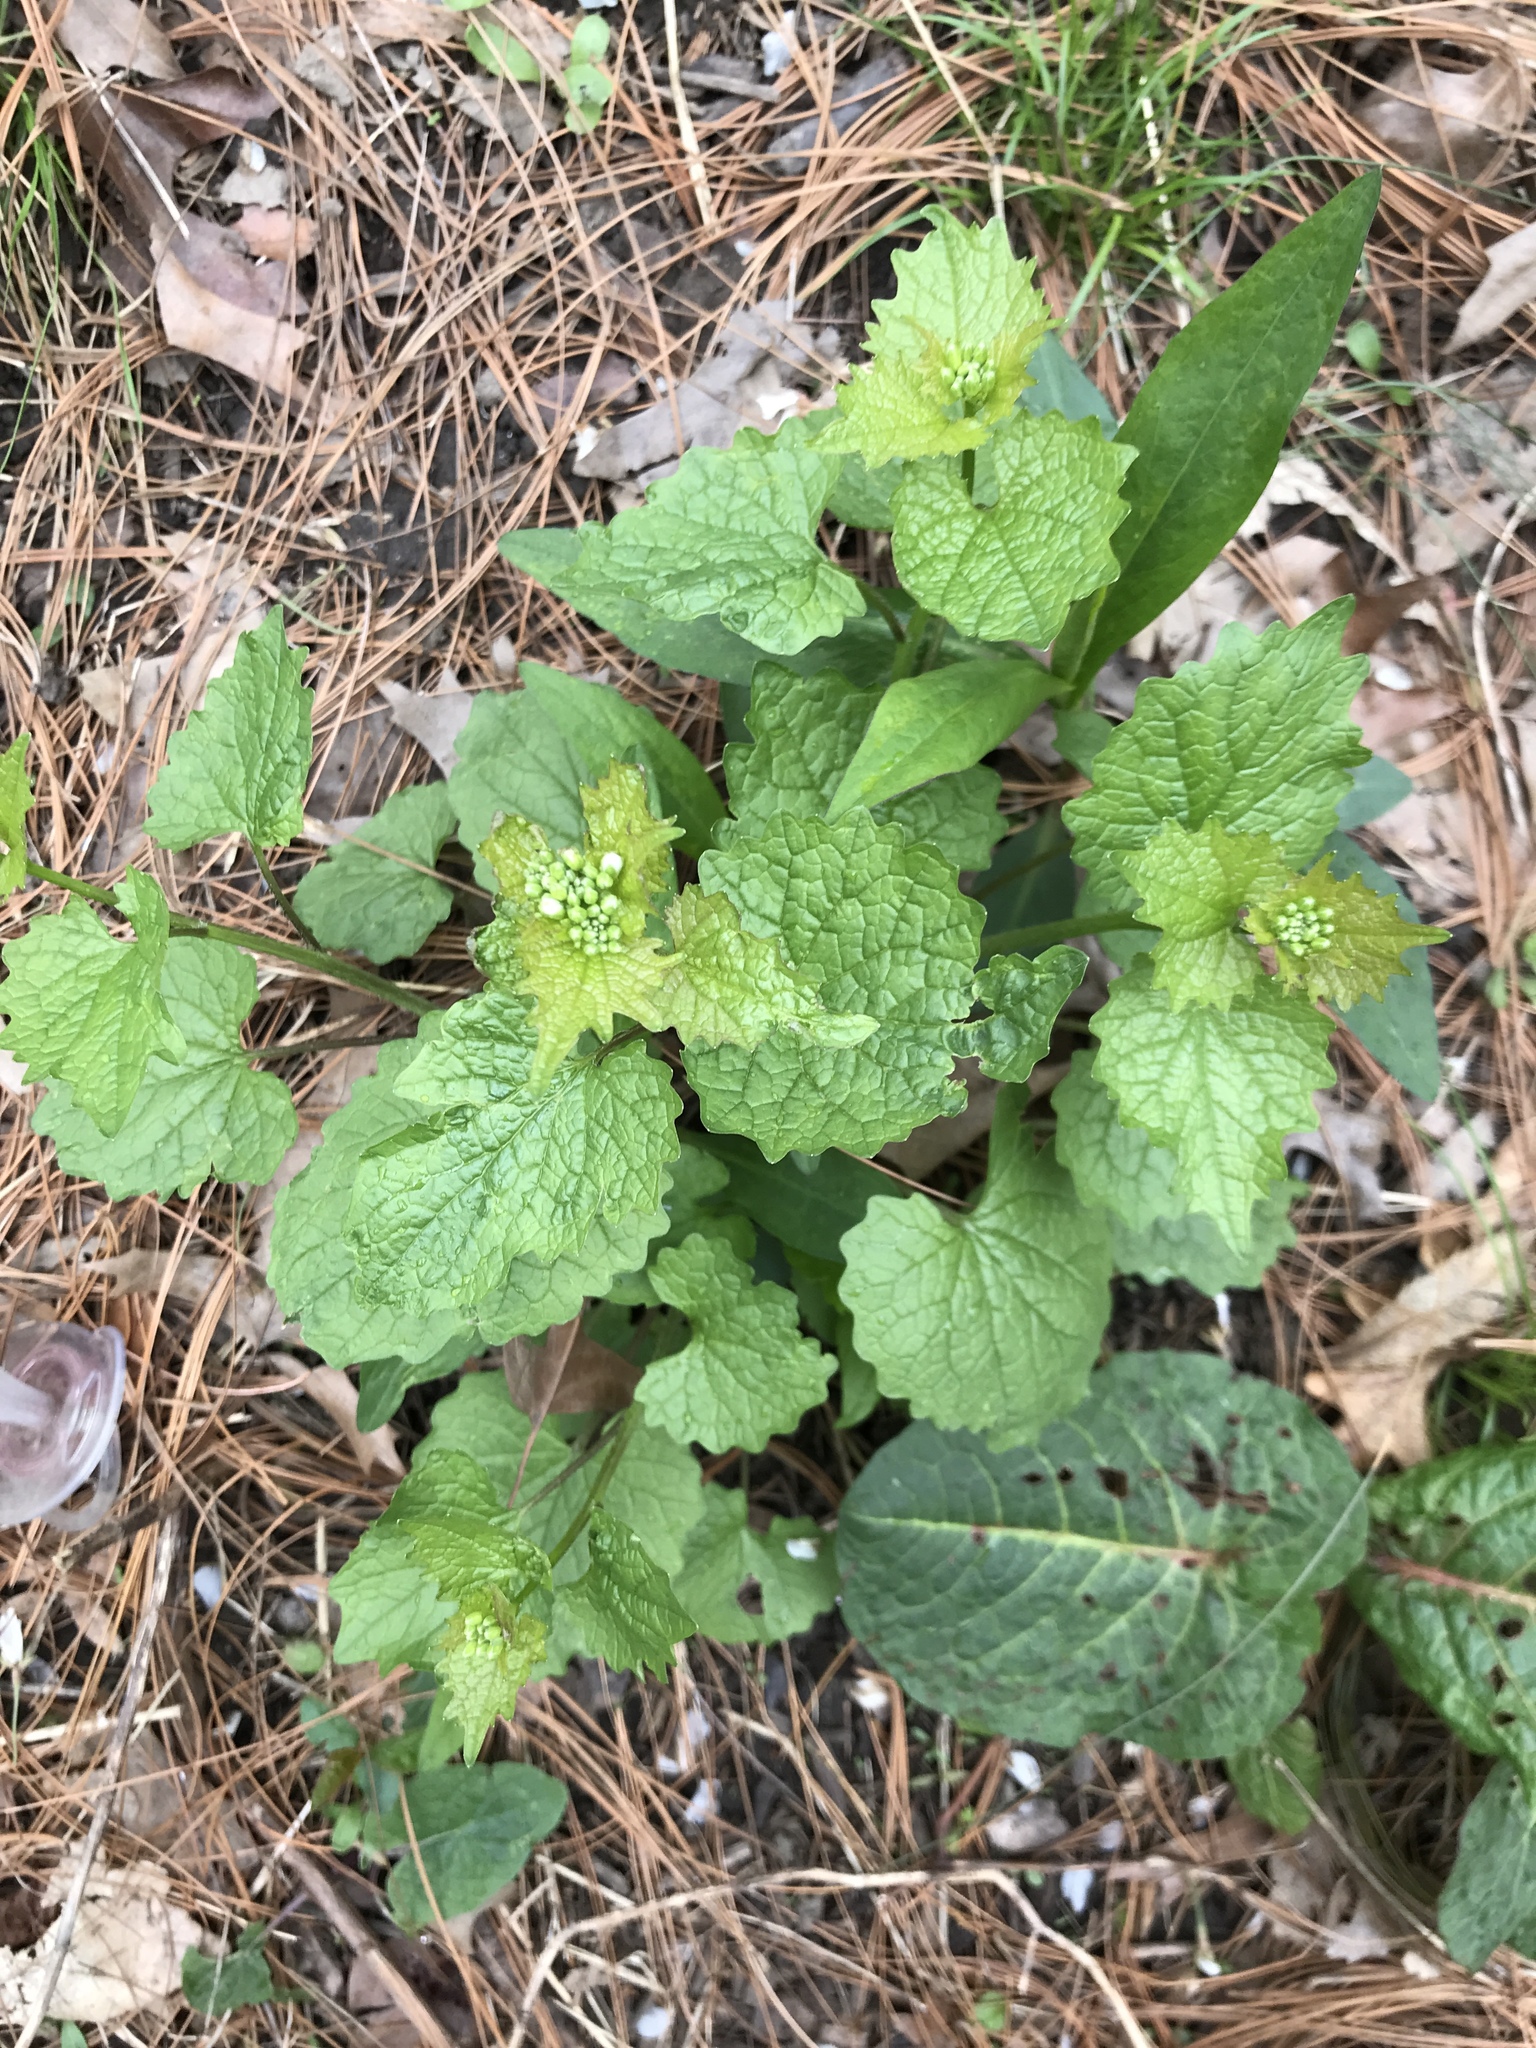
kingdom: Plantae
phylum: Tracheophyta
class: Magnoliopsida
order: Brassicales
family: Brassicaceae
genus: Alliaria
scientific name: Alliaria petiolata
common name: Garlic mustard
